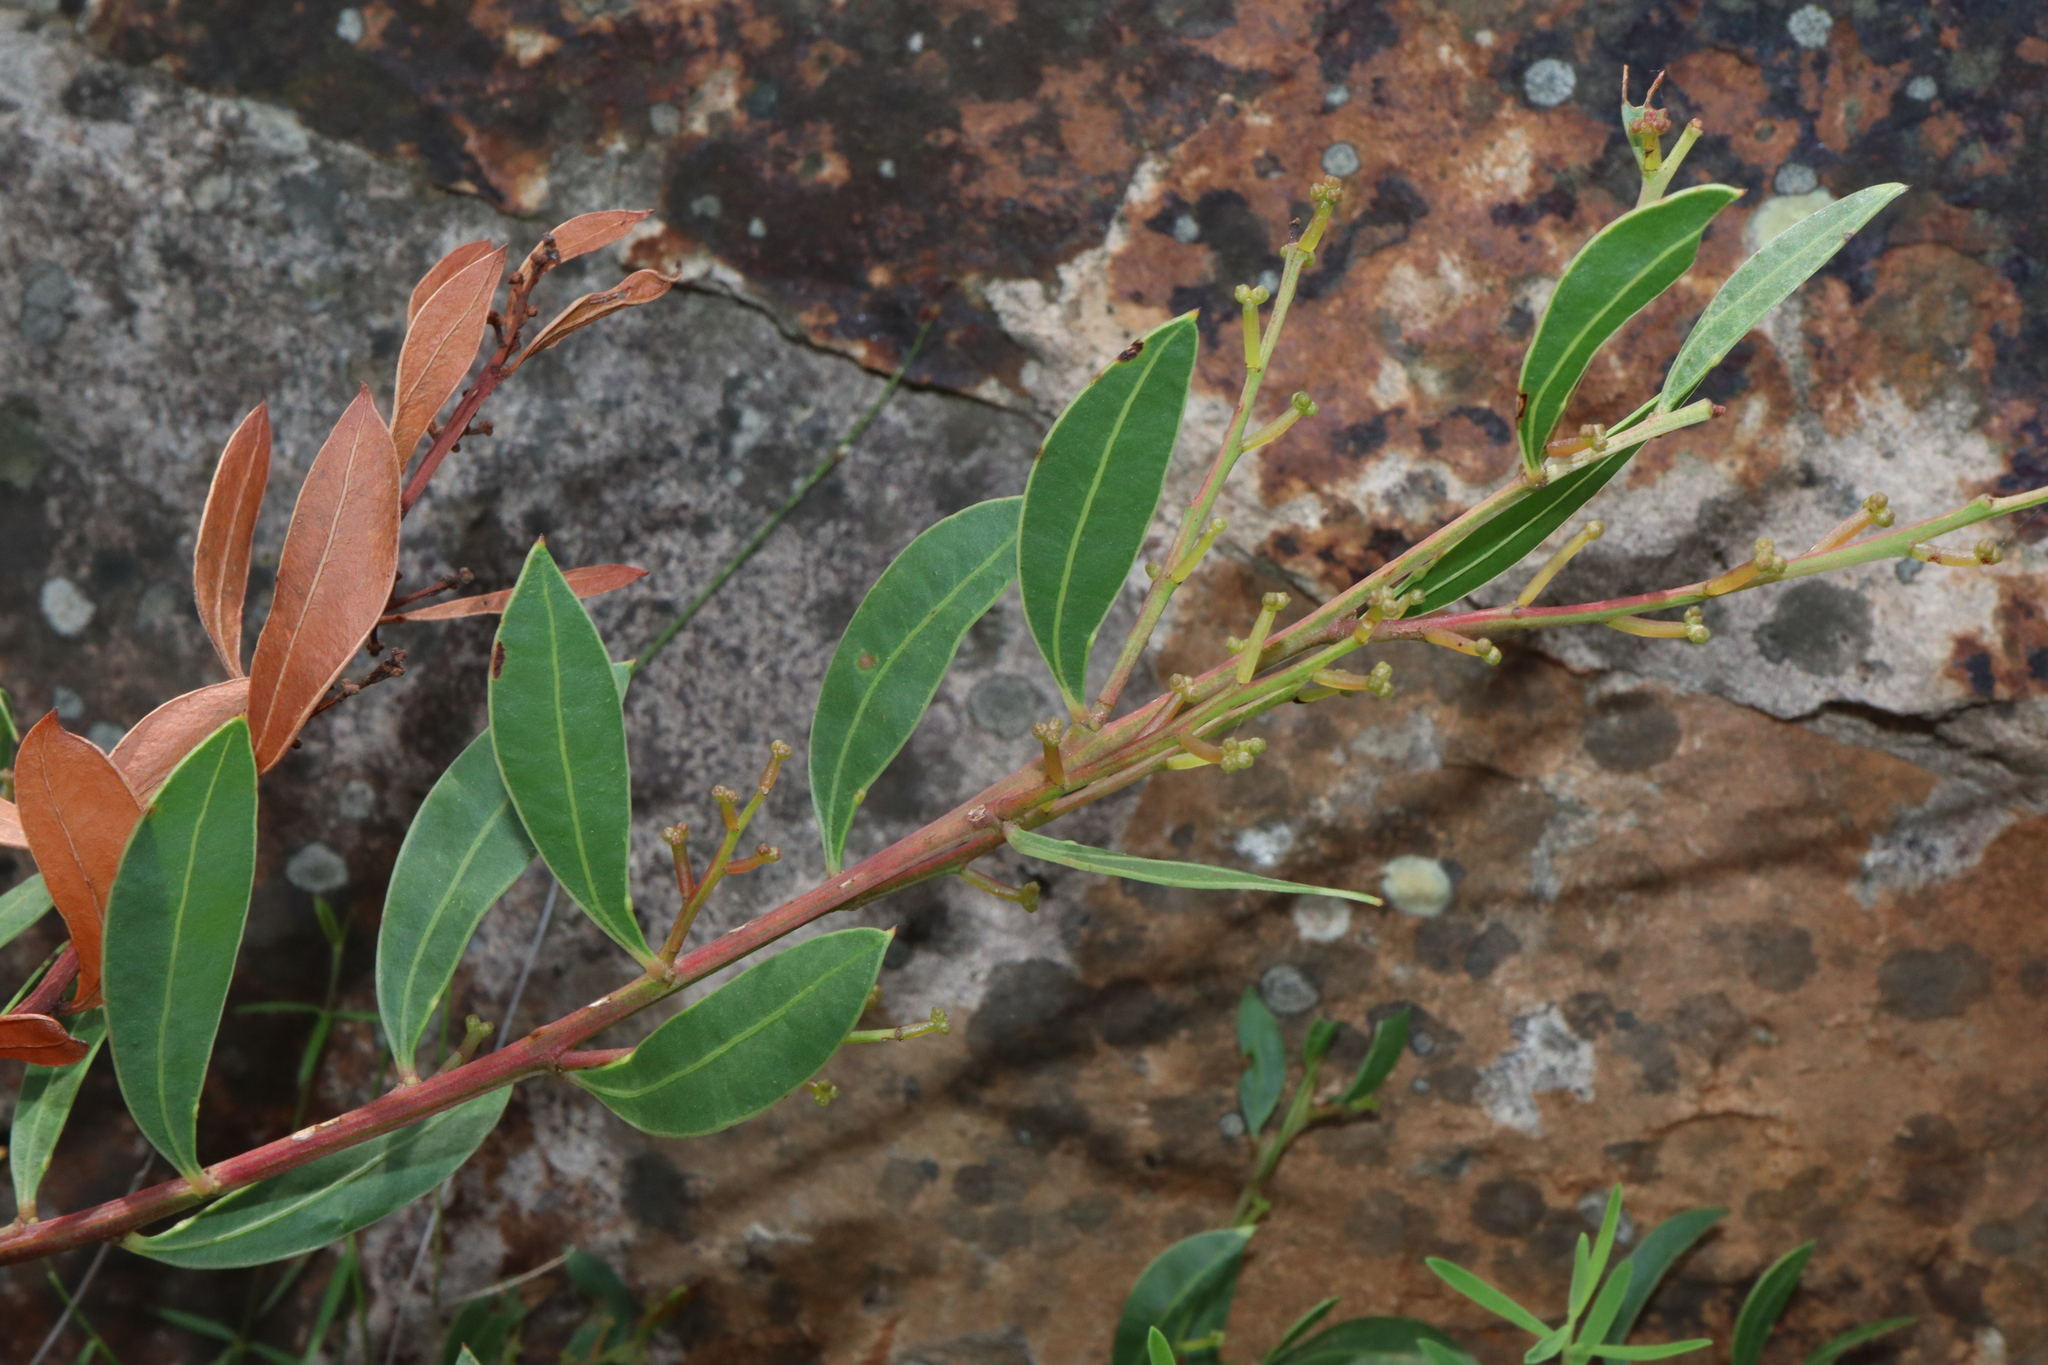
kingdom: Plantae
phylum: Tracheophyta
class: Magnoliopsida
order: Fabales
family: Fabaceae
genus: Acacia
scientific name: Acacia myrtifolia
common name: Myrtle wattle
